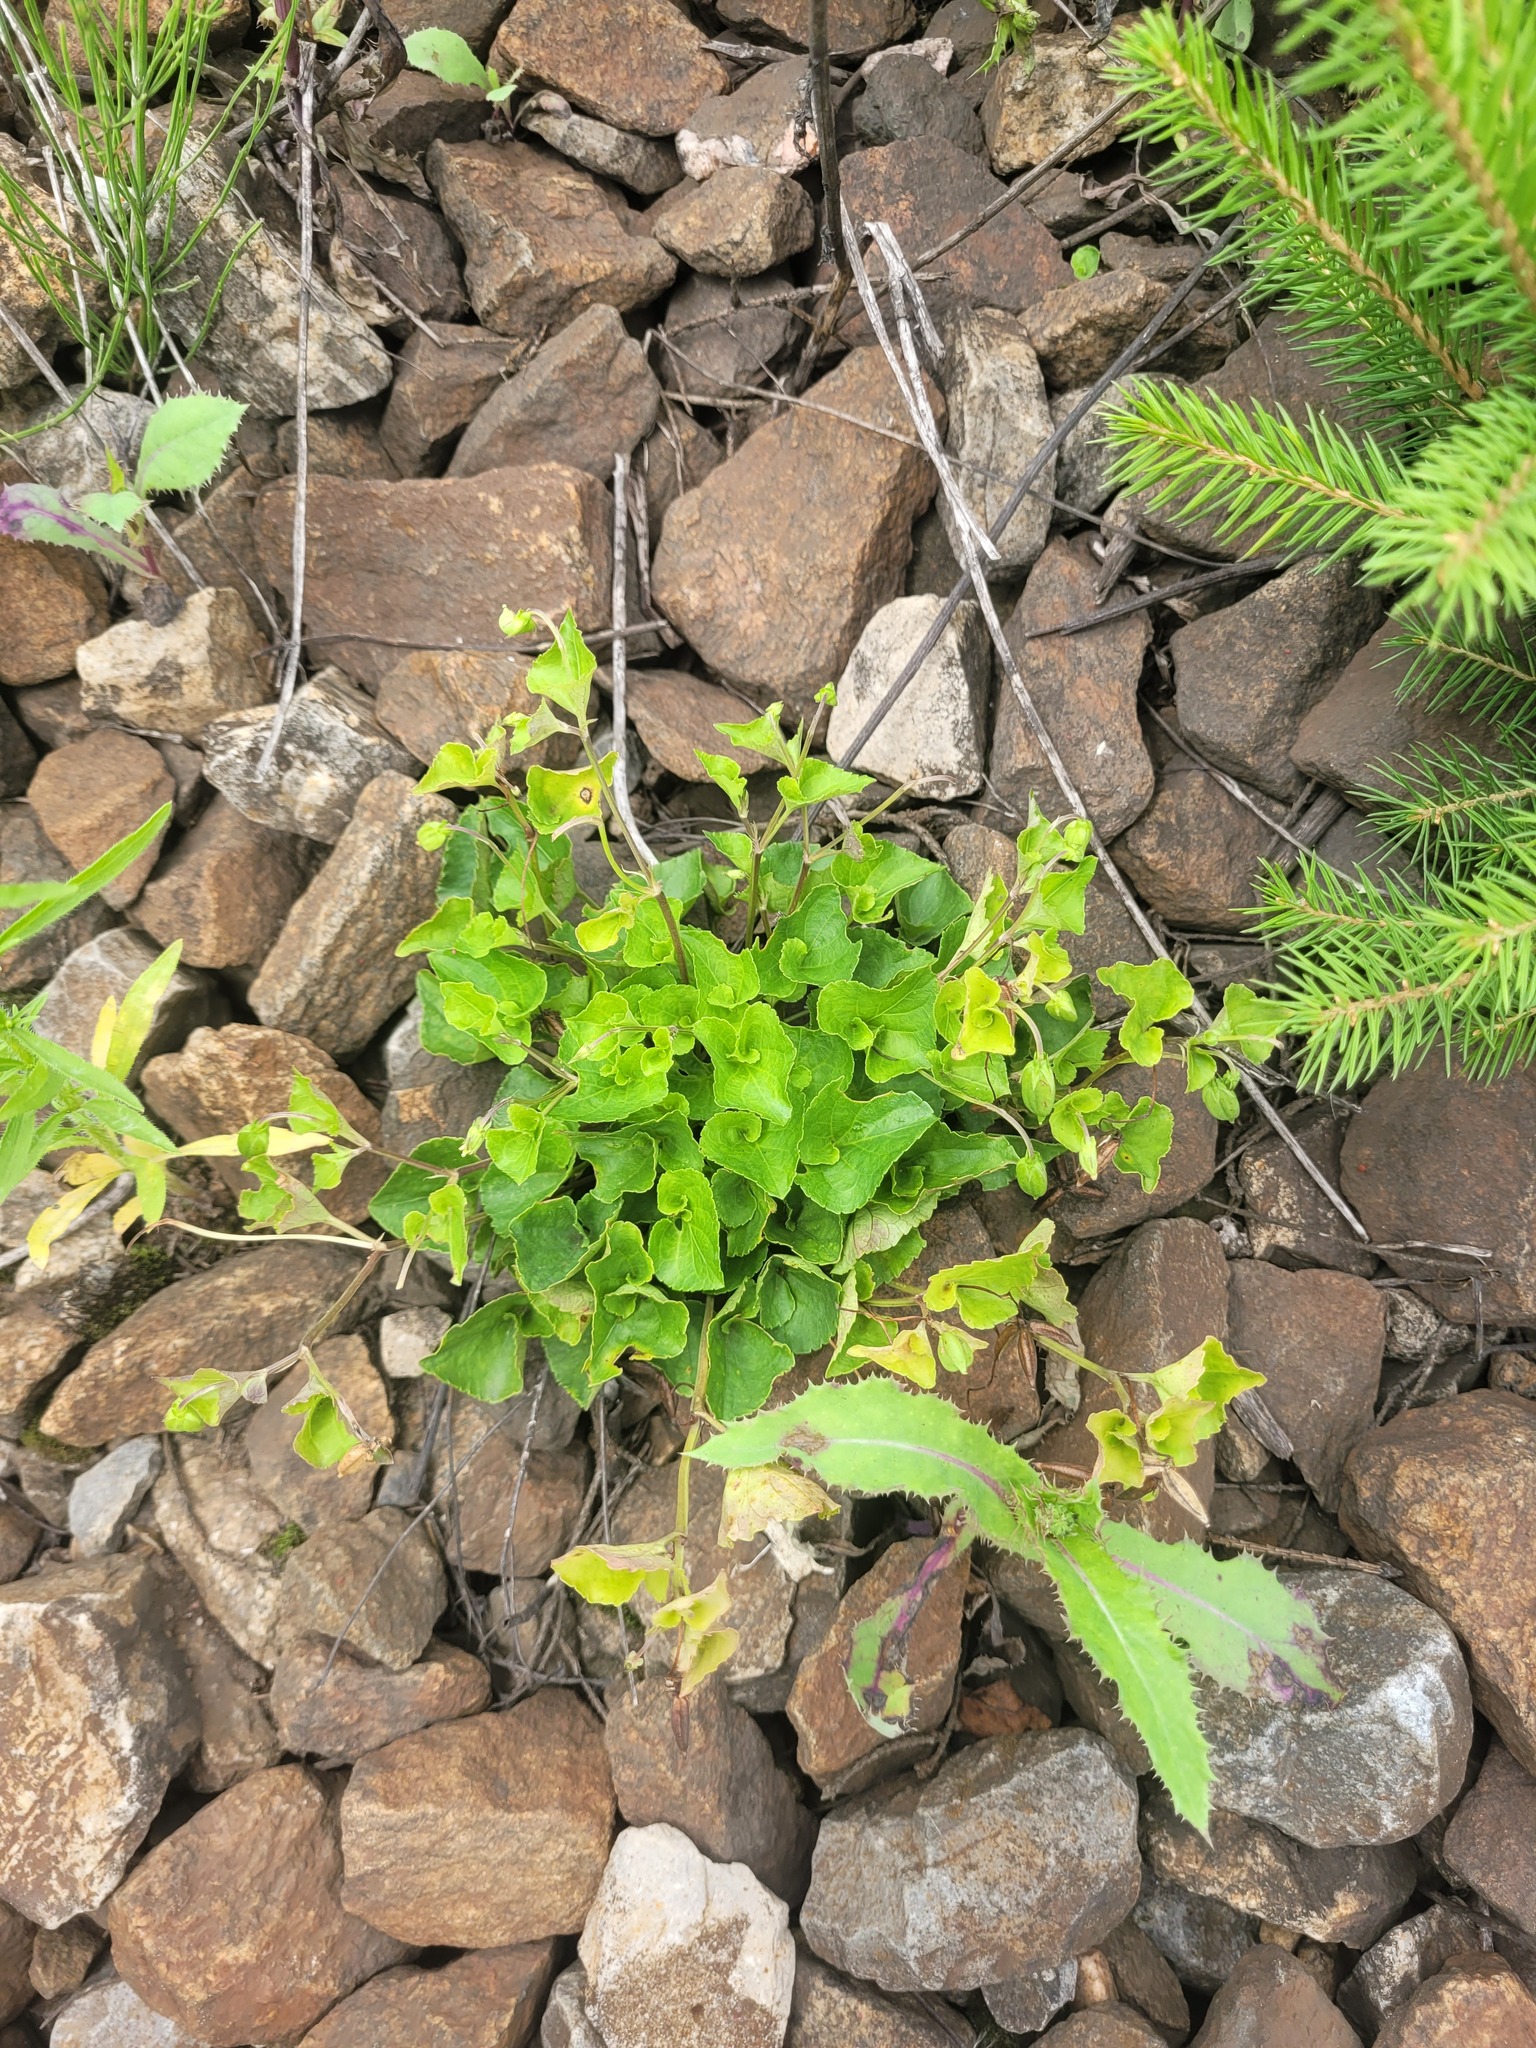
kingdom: Plantae
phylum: Tracheophyta
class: Magnoliopsida
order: Malpighiales
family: Violaceae
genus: Viola
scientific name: Viola riviniana
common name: Common dog-violet
